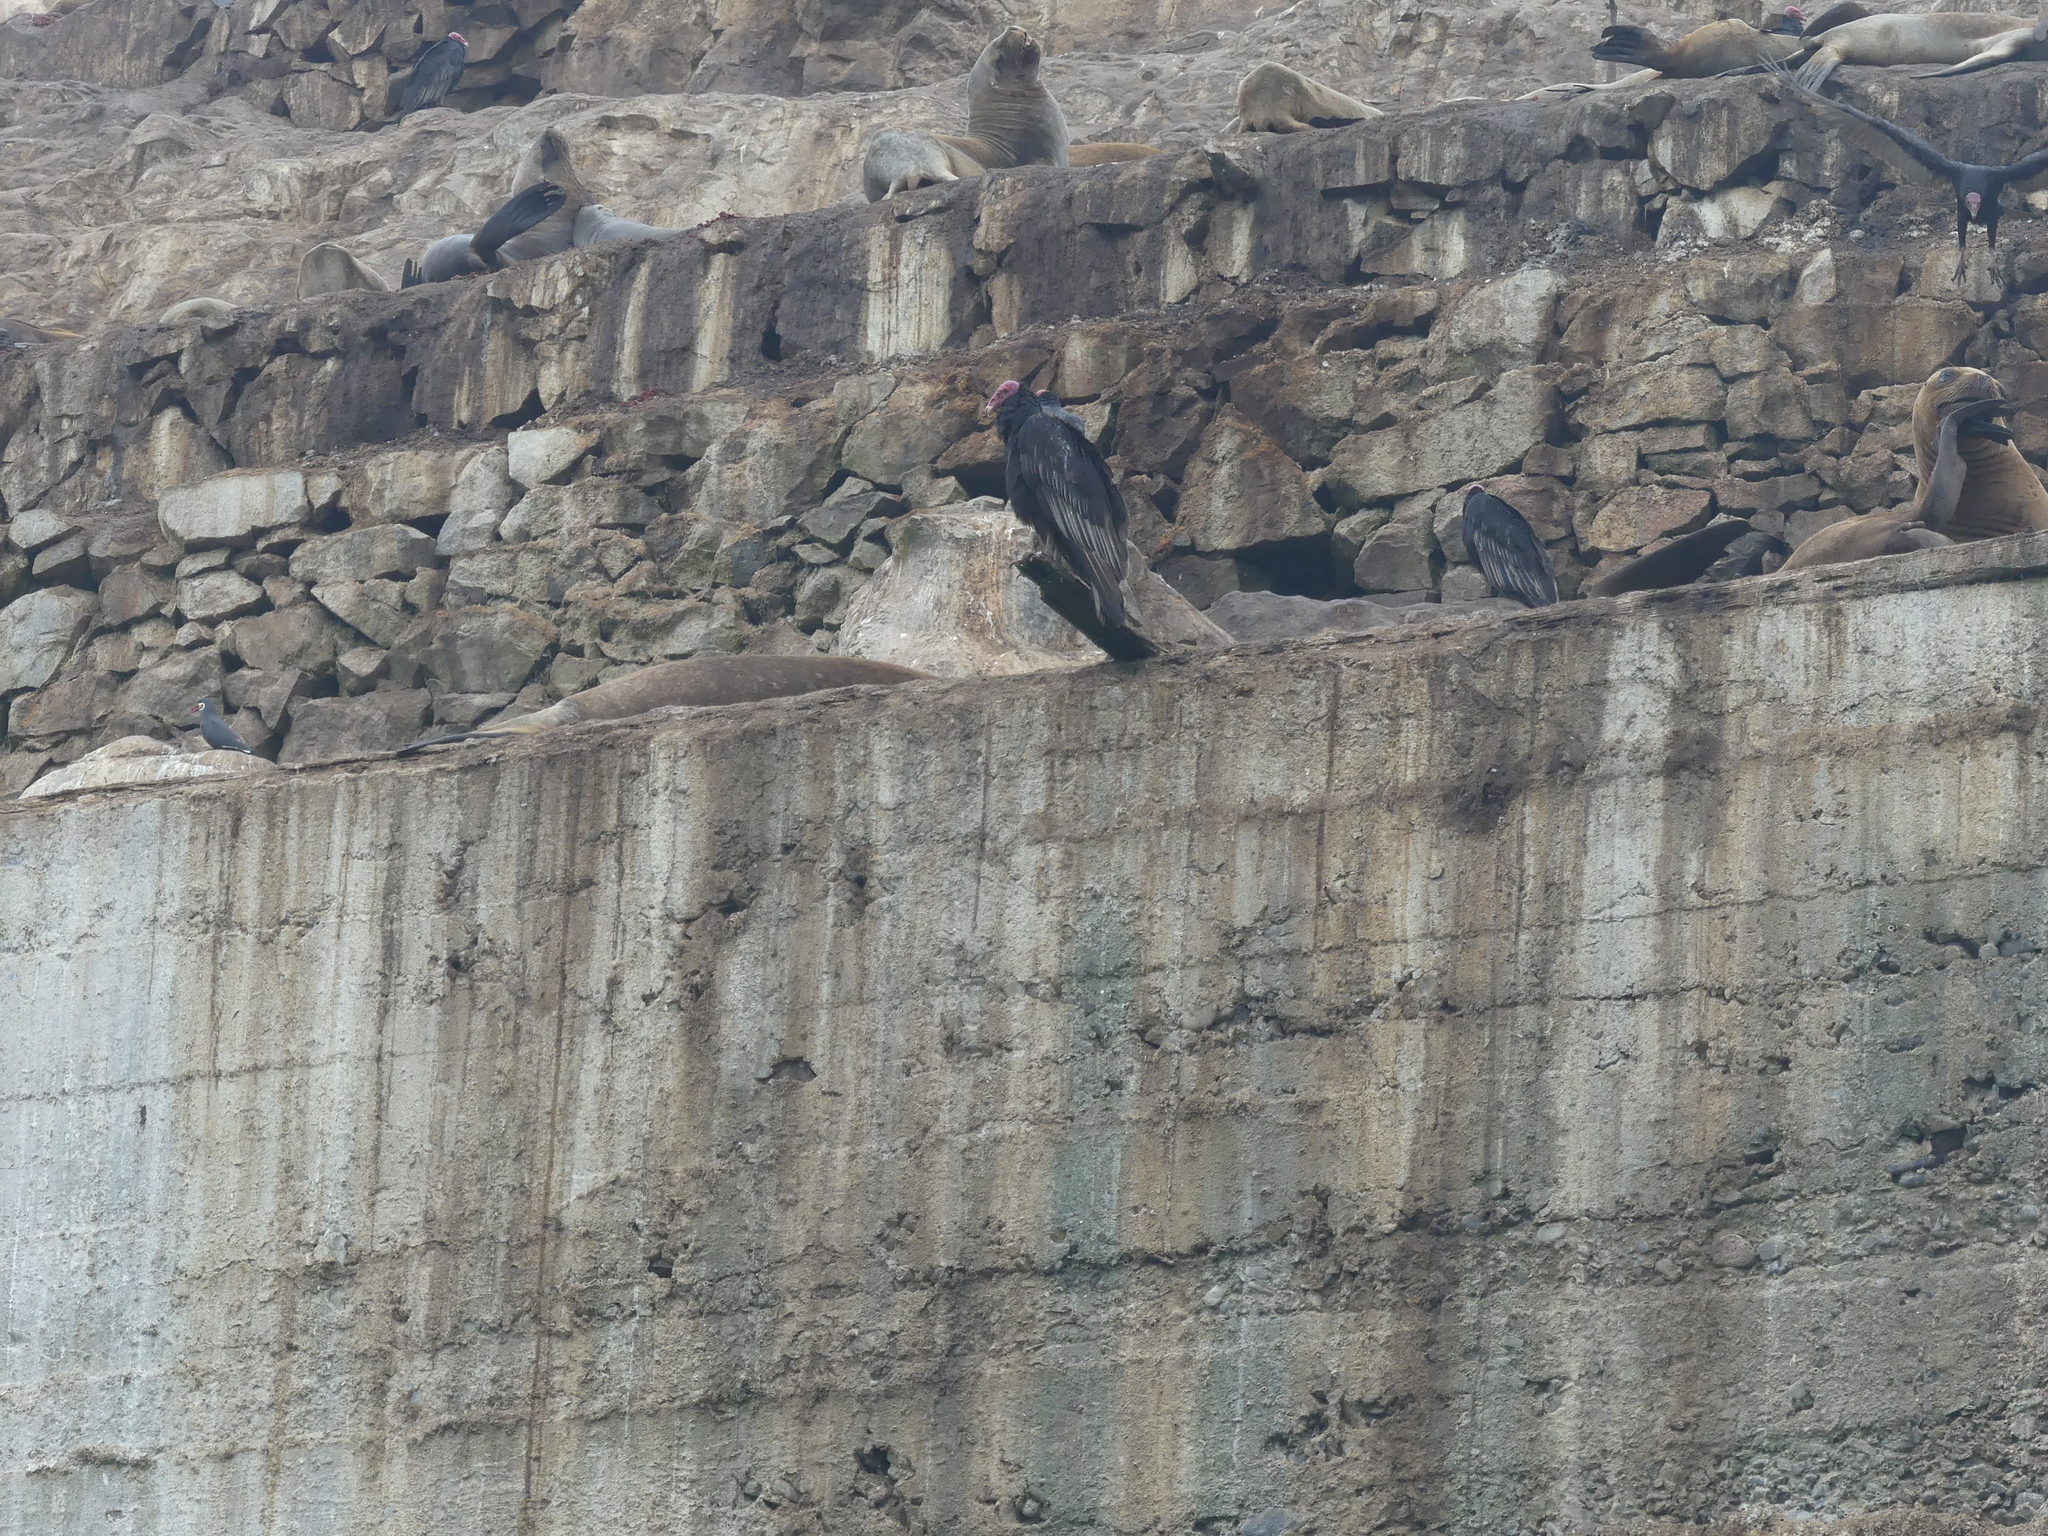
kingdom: Animalia
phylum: Chordata
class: Aves
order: Accipitriformes
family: Cathartidae
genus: Cathartes
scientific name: Cathartes aura
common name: Turkey vulture
